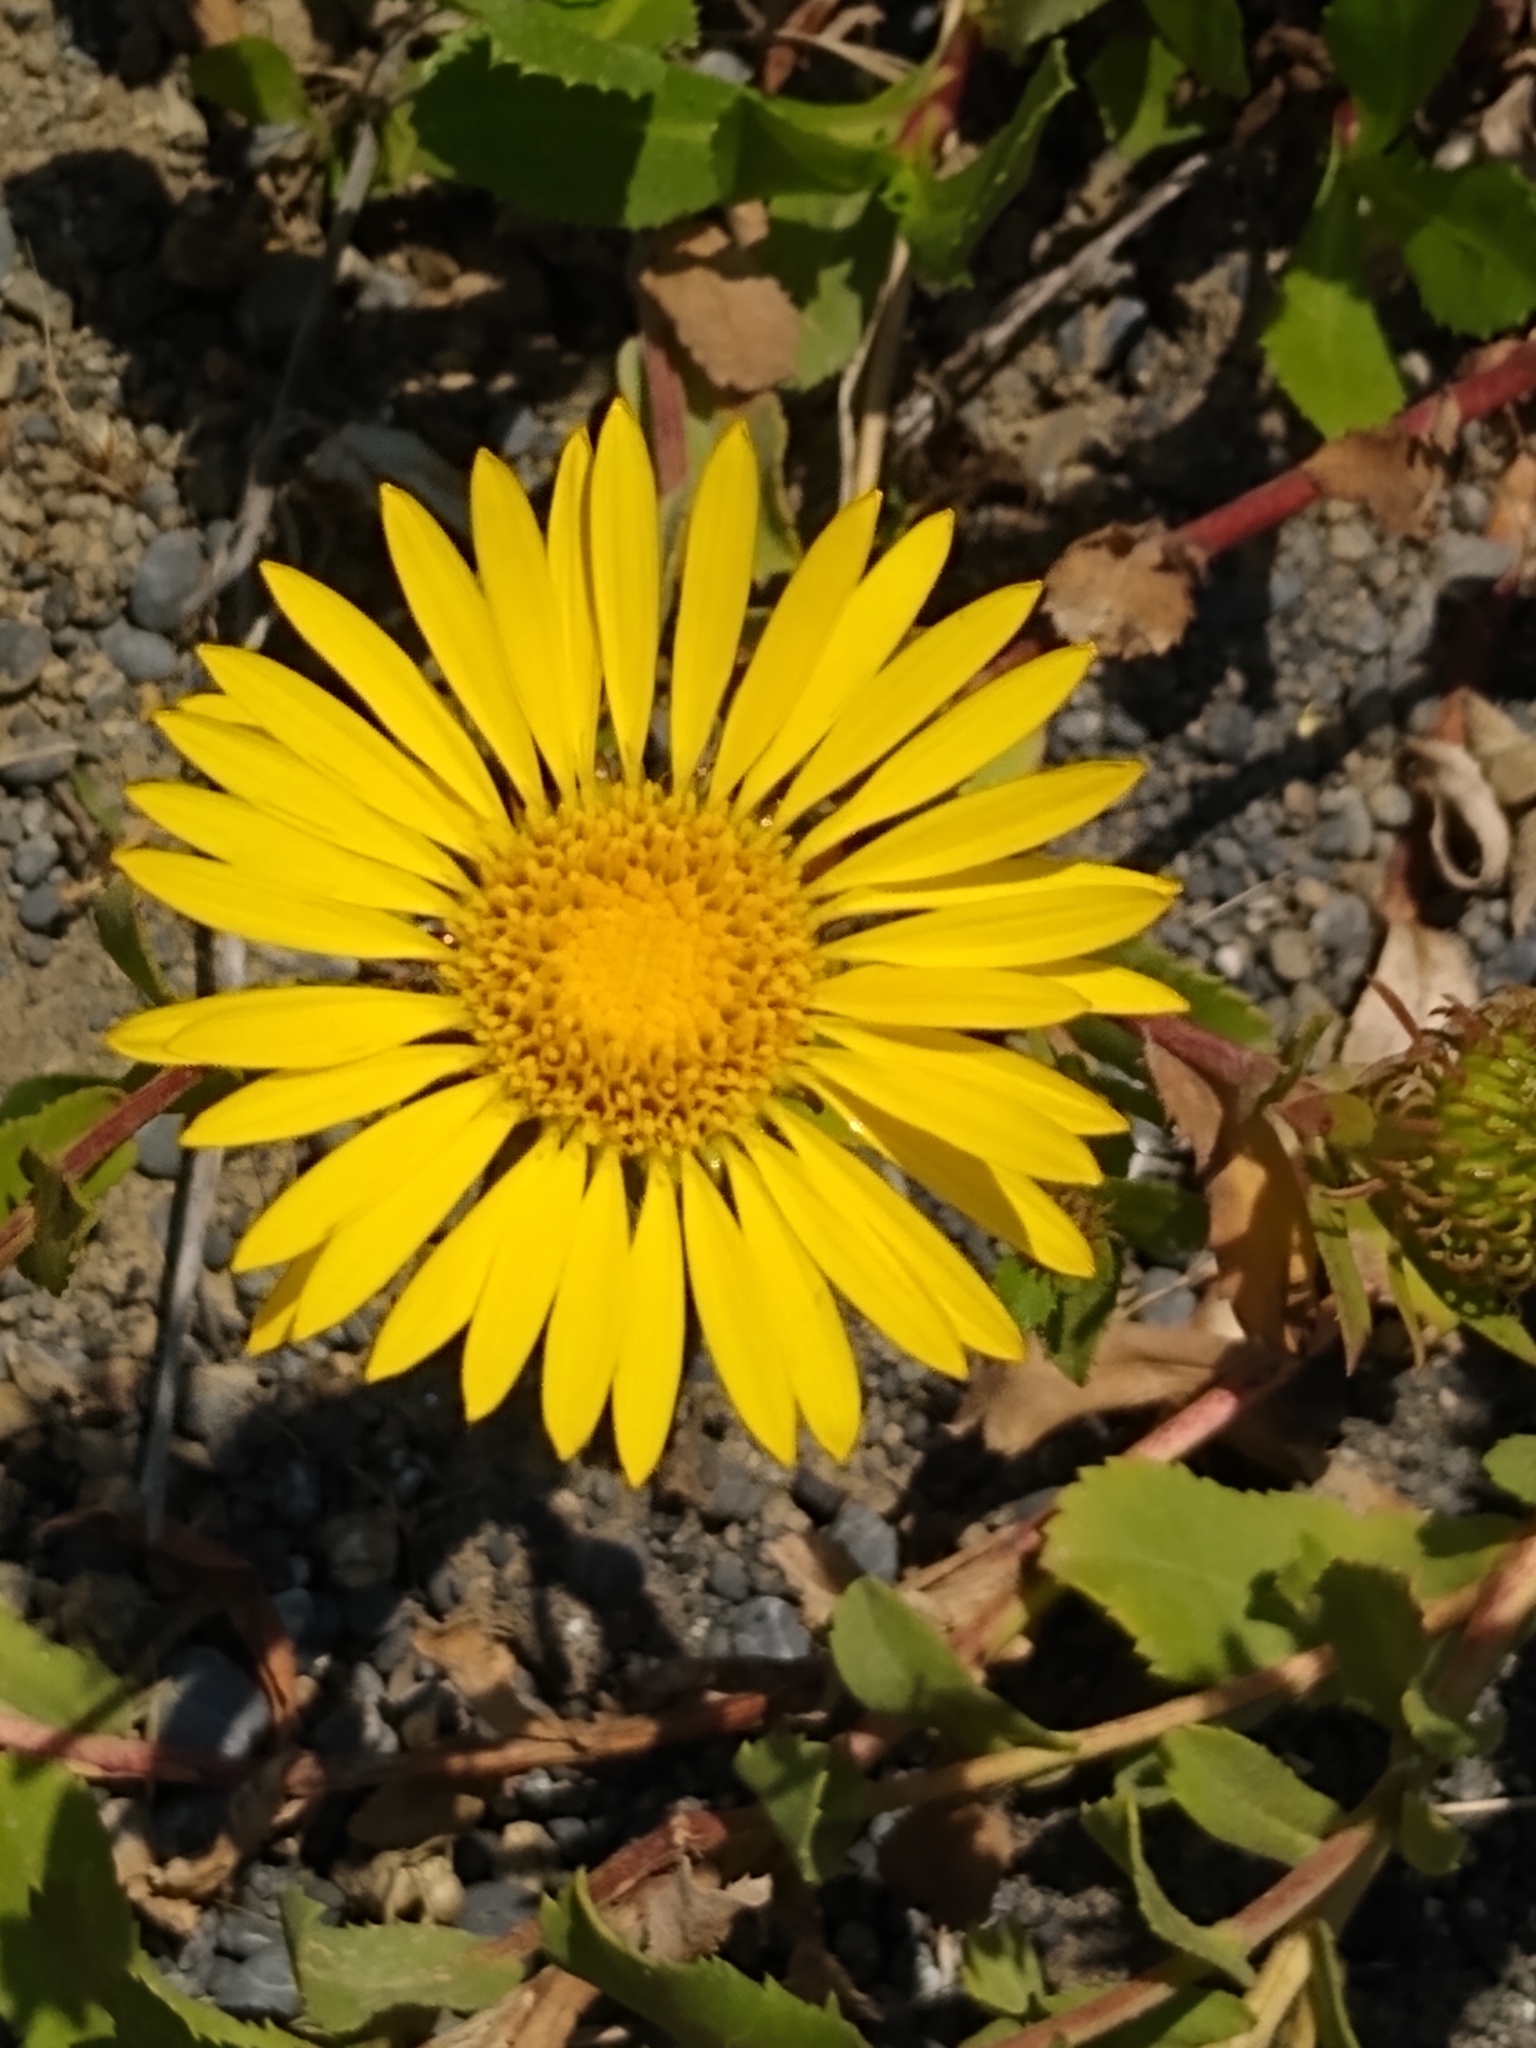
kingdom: Plantae
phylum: Tracheophyta
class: Magnoliopsida
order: Asterales
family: Asteraceae
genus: Grindelia
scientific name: Grindelia hirsutula
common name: Hairy gumweed
